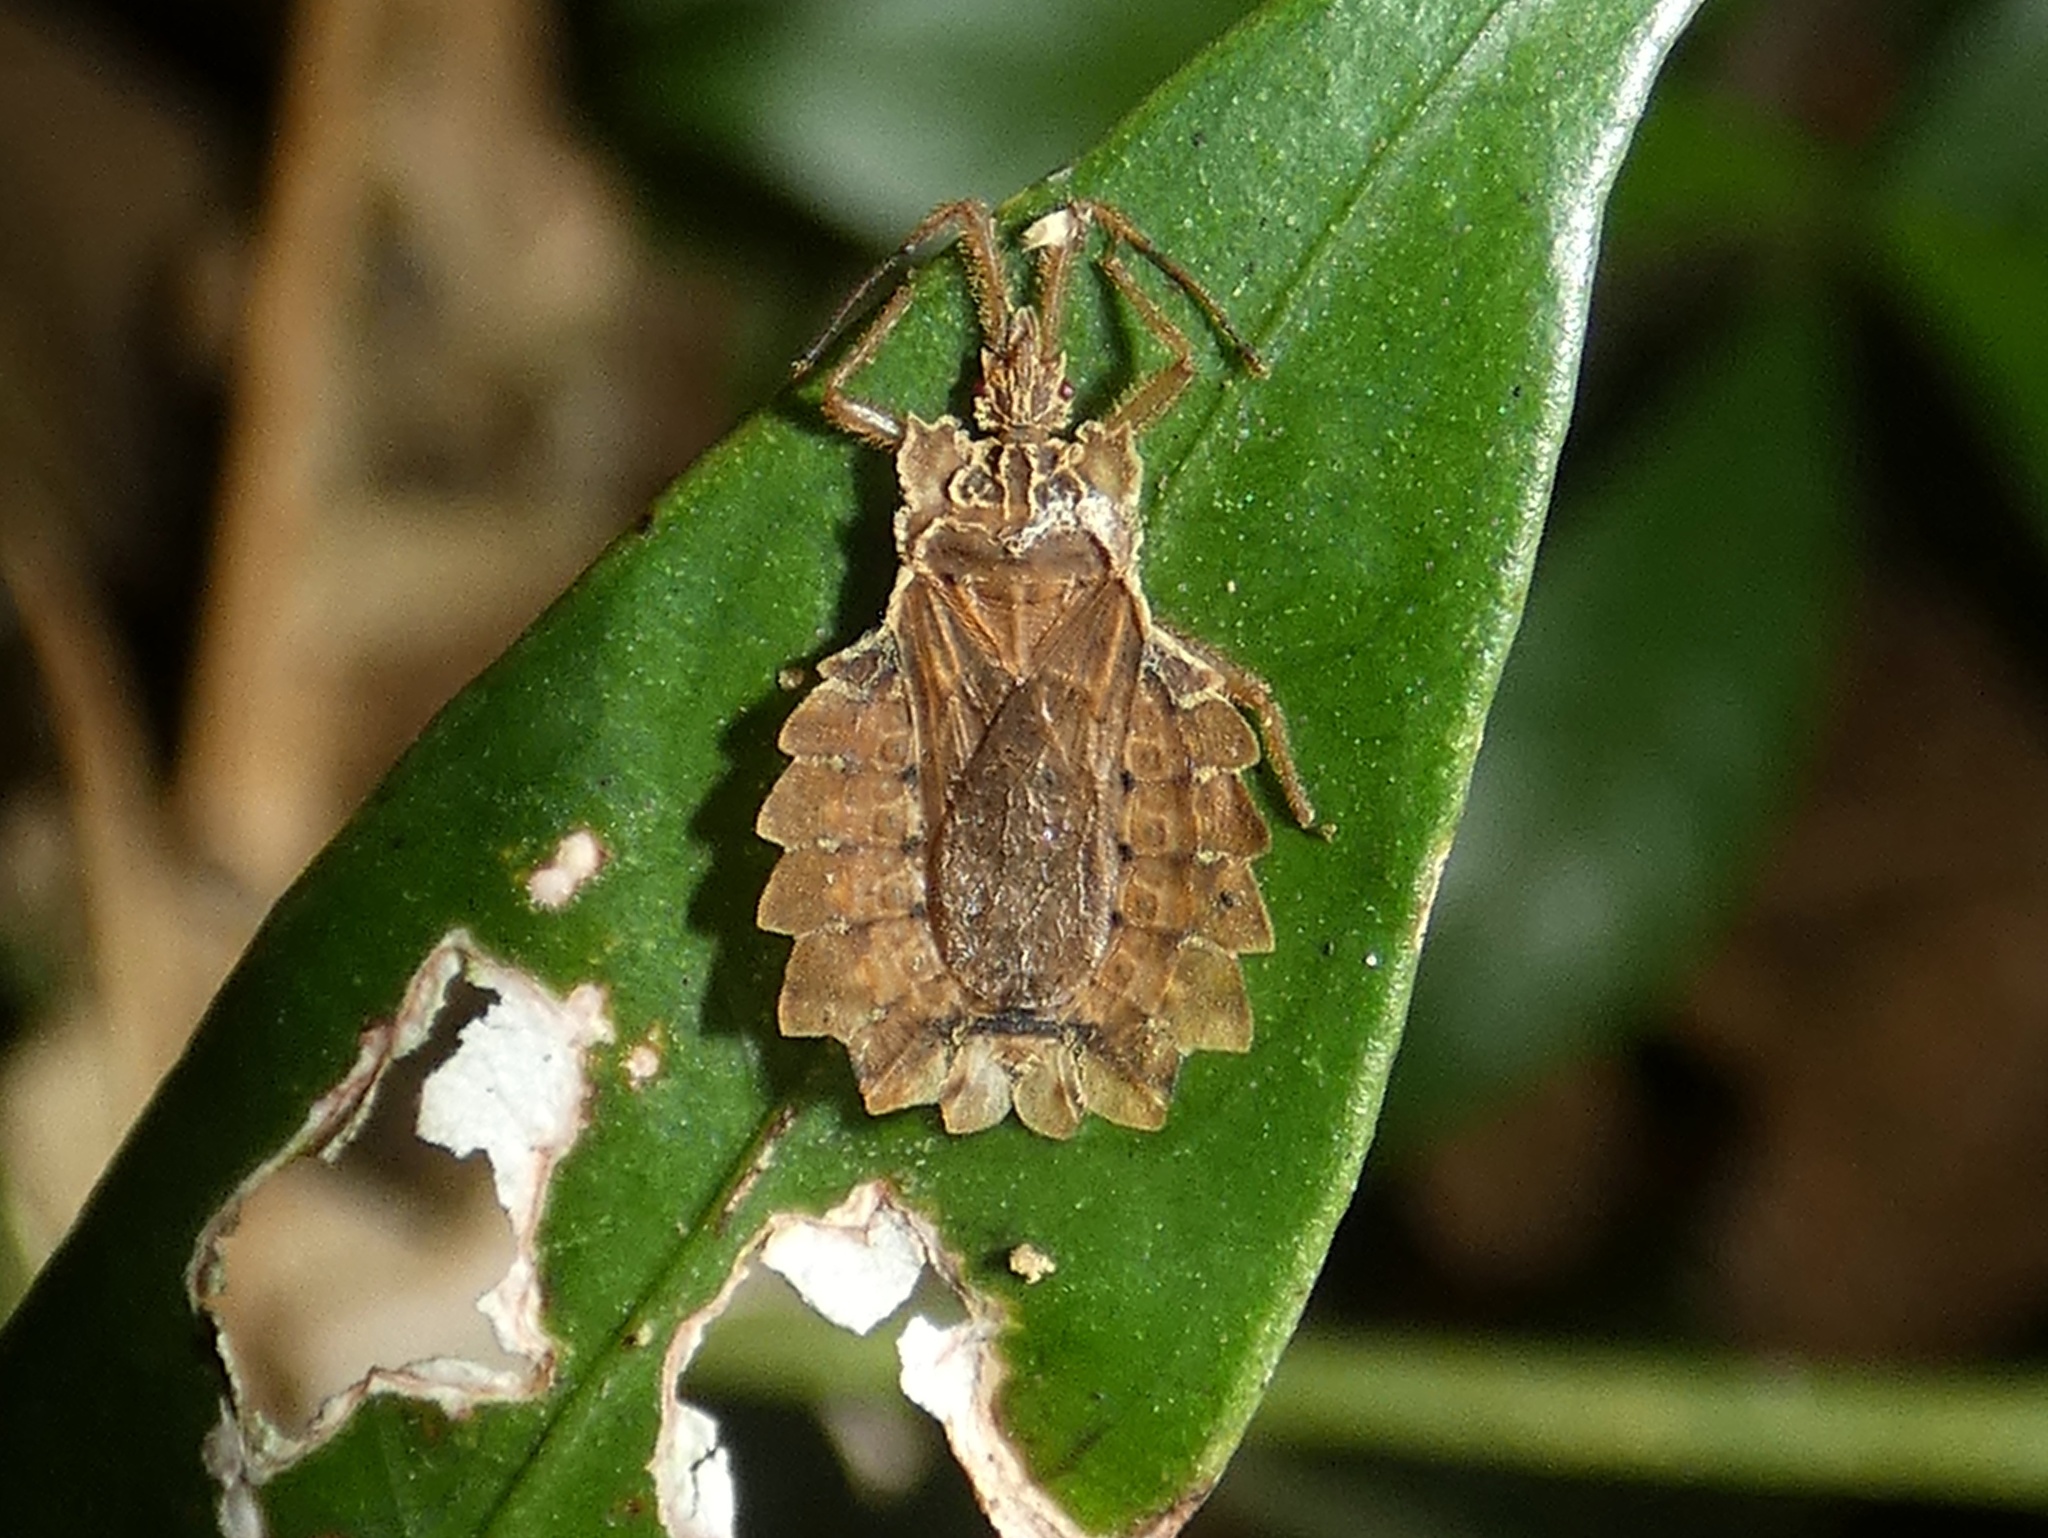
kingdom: Animalia
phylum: Arthropoda
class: Insecta
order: Hemiptera
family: Aradidae
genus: Phyllotingis
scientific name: Phyllotingis
